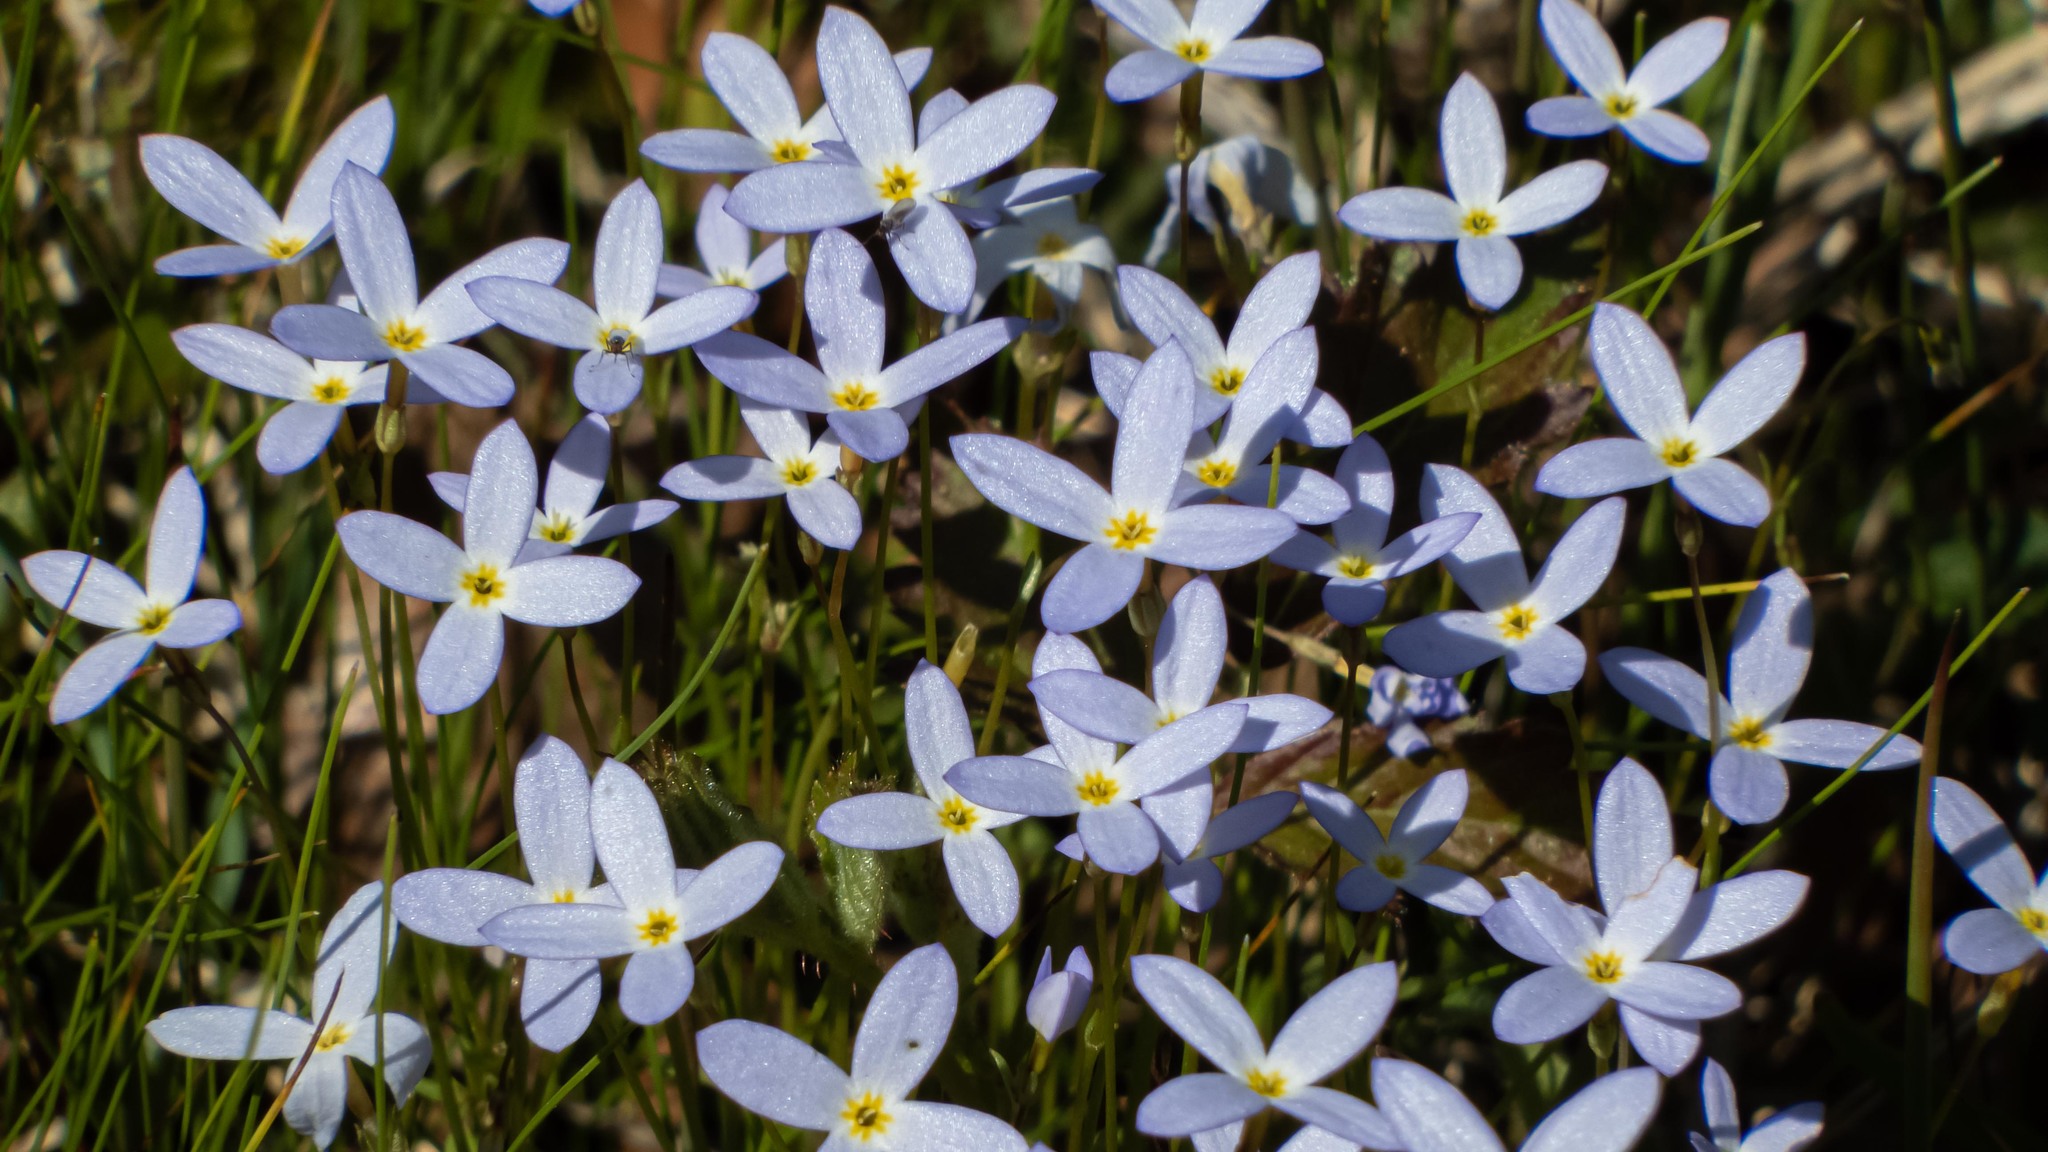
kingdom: Plantae
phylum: Tracheophyta
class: Magnoliopsida
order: Gentianales
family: Rubiaceae
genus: Houstonia
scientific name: Houstonia caerulea
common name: Bluets
